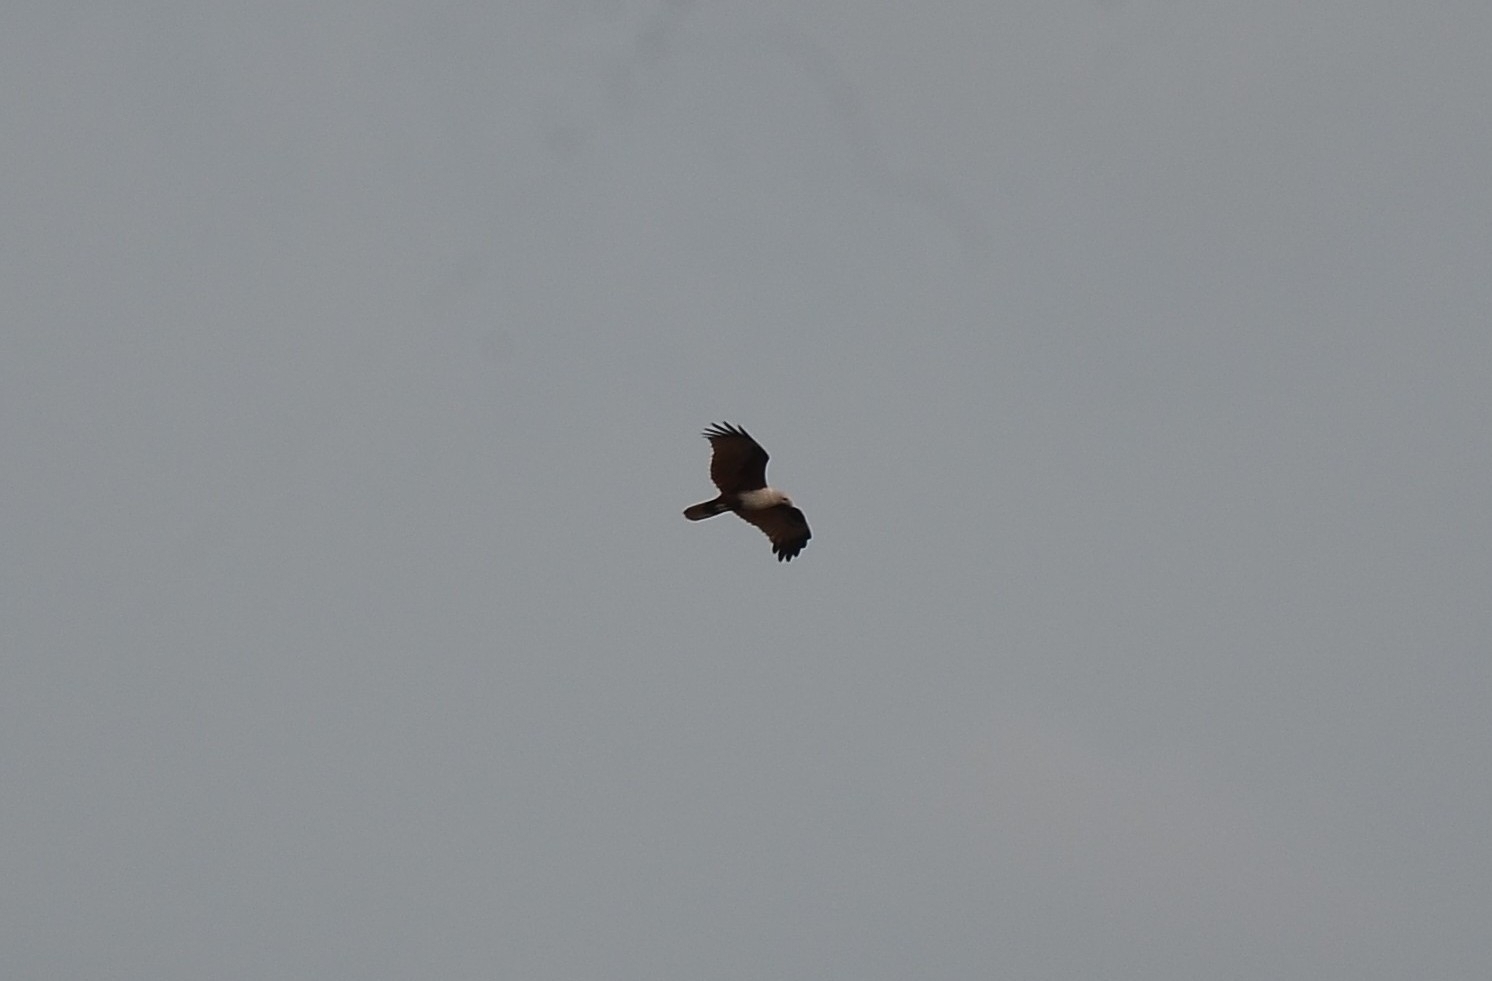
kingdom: Animalia
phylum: Chordata
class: Aves
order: Accipitriformes
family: Accipitridae
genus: Haliastur
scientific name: Haliastur indus
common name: Brahminy kite
